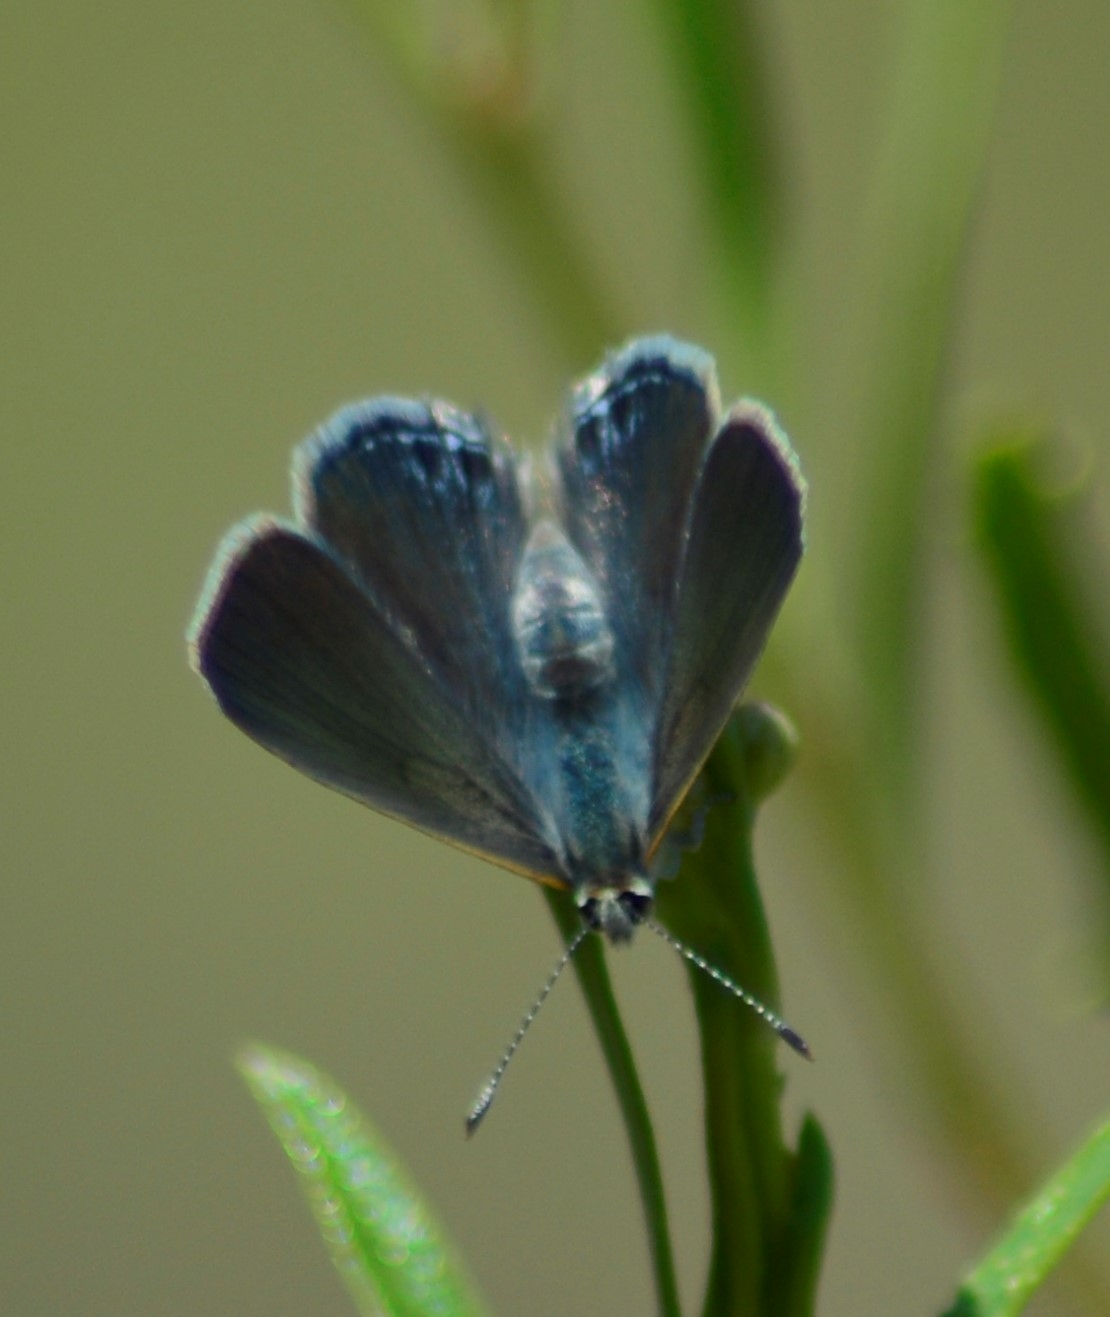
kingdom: Animalia
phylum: Arthropoda
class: Insecta
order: Lepidoptera
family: Lycaenidae
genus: Strymon
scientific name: Strymon eurytulus
